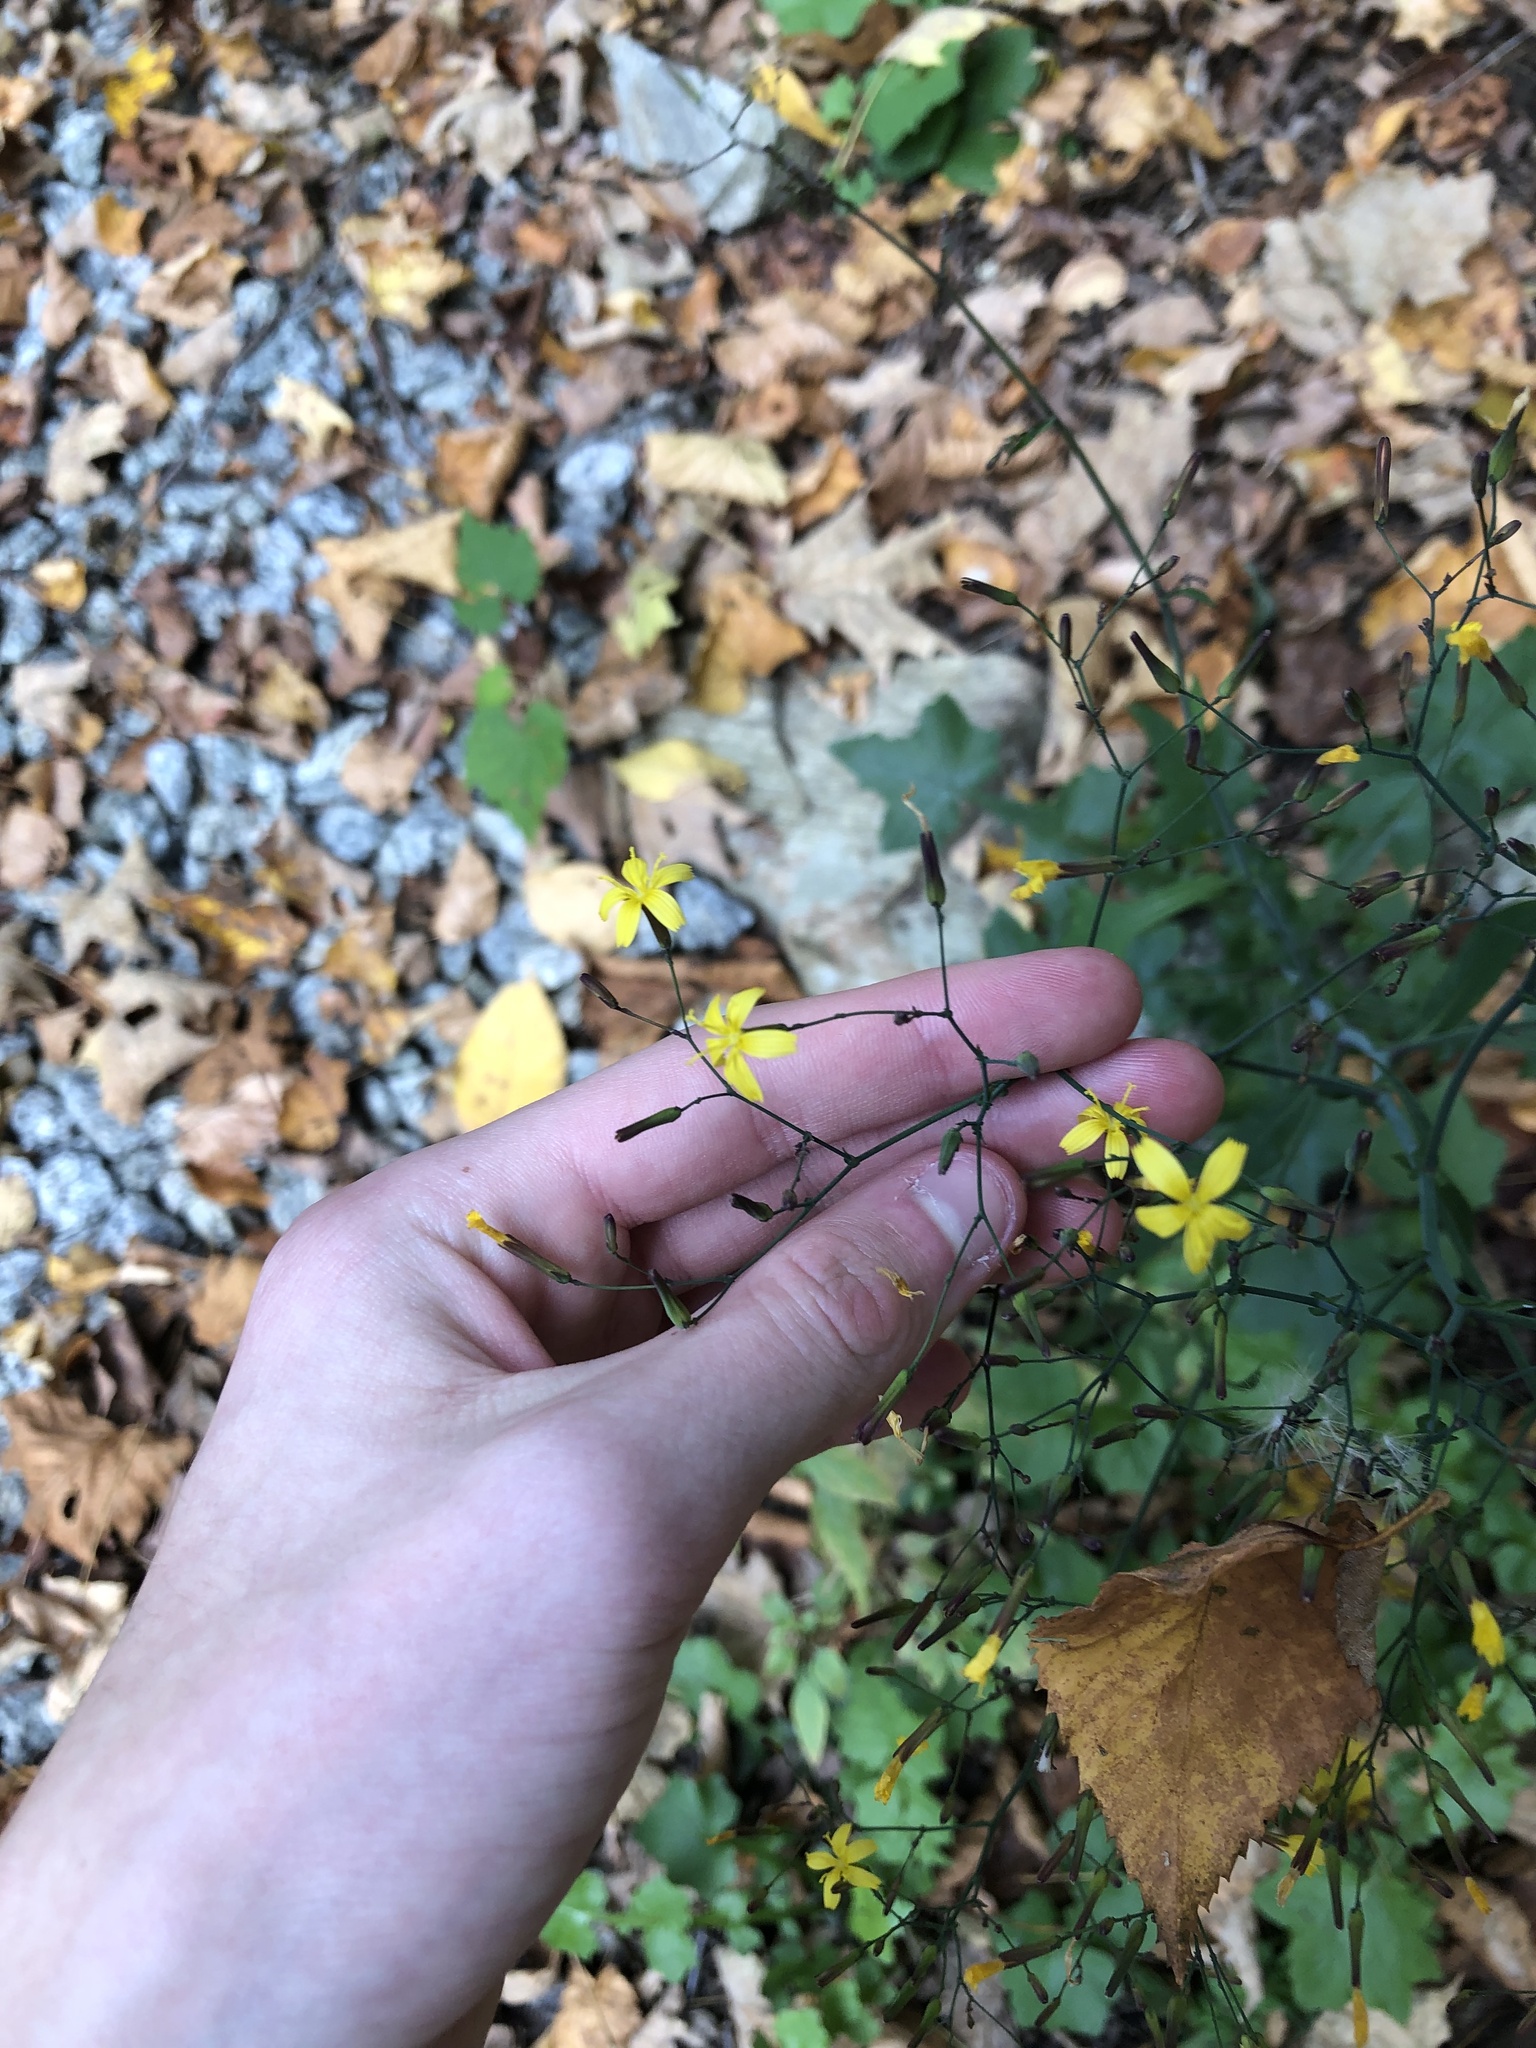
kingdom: Plantae
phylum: Tracheophyta
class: Magnoliopsida
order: Asterales
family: Asteraceae
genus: Mycelis
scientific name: Mycelis muralis
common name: Wall lettuce
